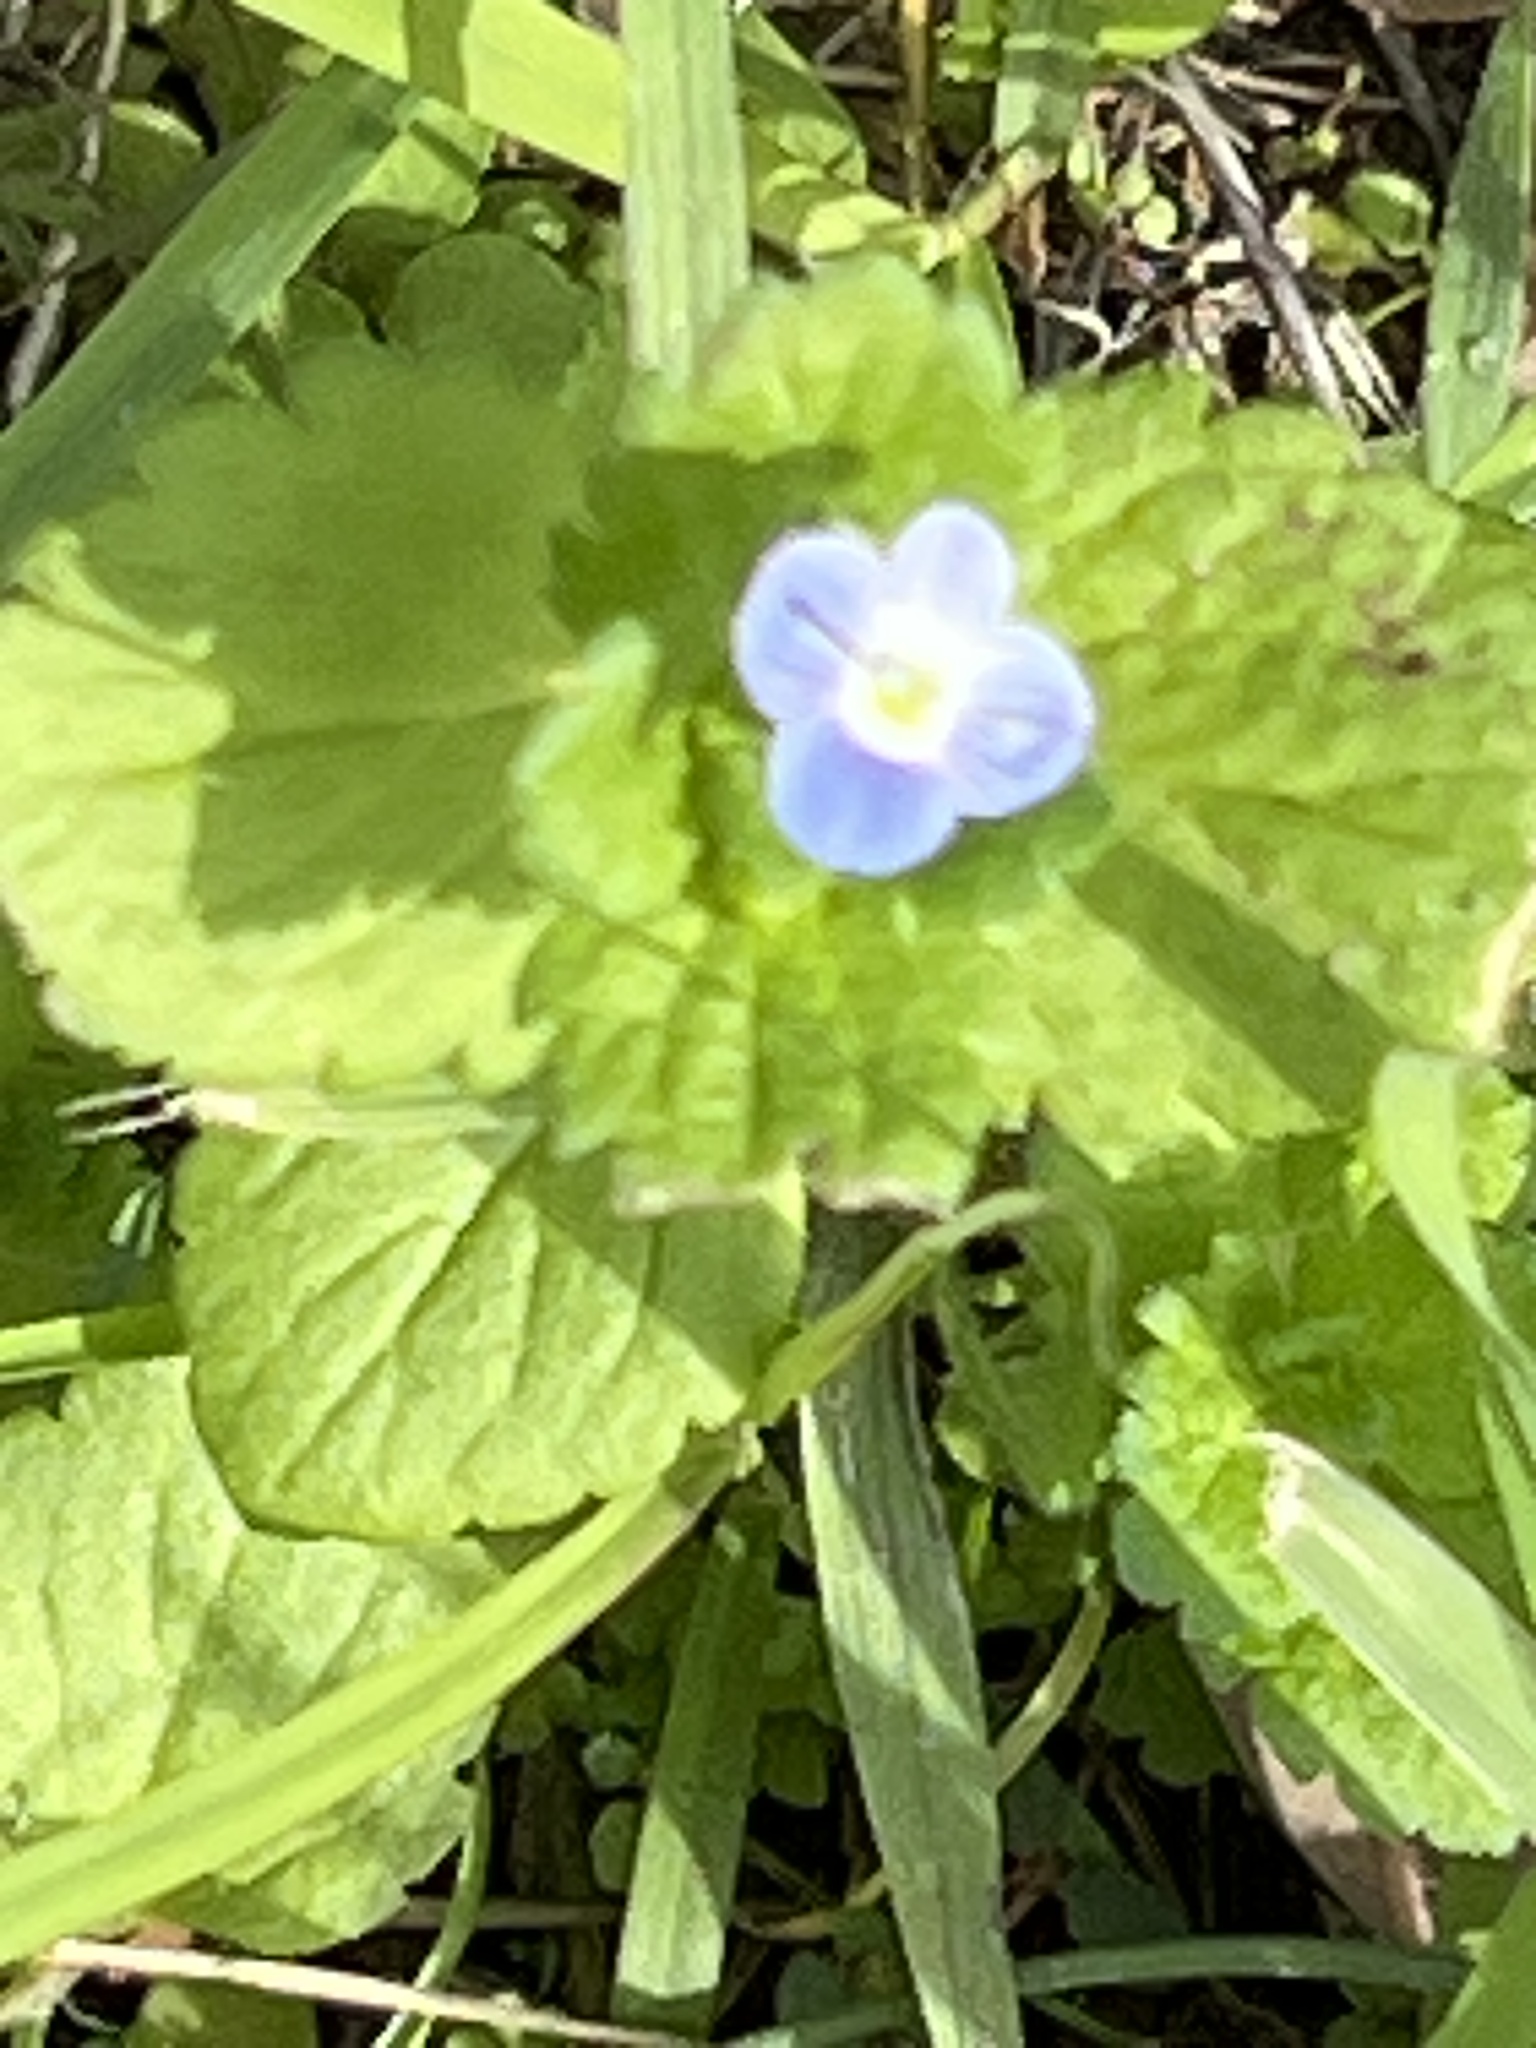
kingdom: Plantae
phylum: Tracheophyta
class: Magnoliopsida
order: Lamiales
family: Plantaginaceae
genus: Veronica
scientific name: Veronica persica
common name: Common field-speedwell
